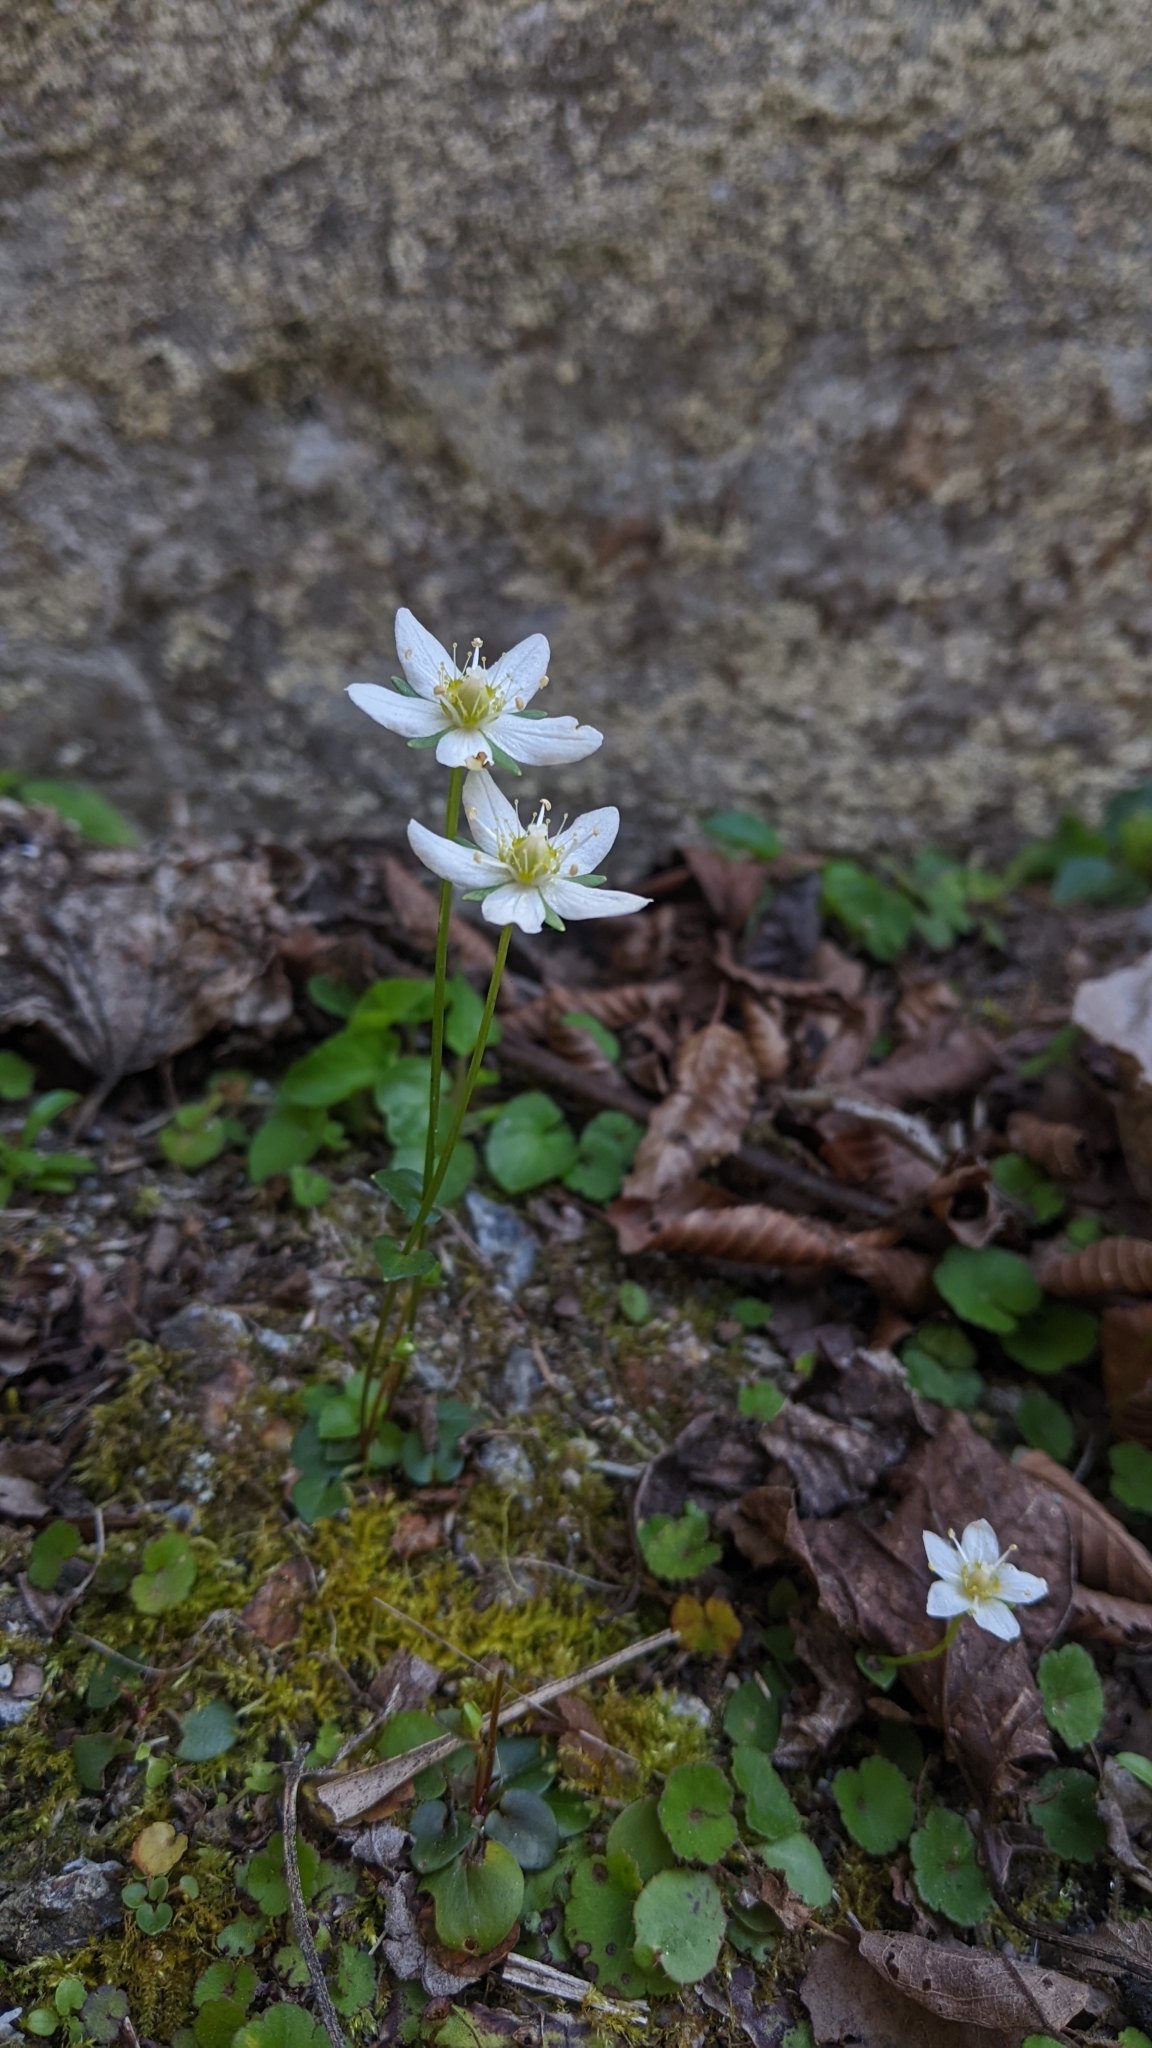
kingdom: Plantae
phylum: Tracheophyta
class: Magnoliopsida
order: Celastrales
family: Parnassiaceae
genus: Parnassia
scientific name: Parnassia palustris
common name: Grass-of-parnassus
